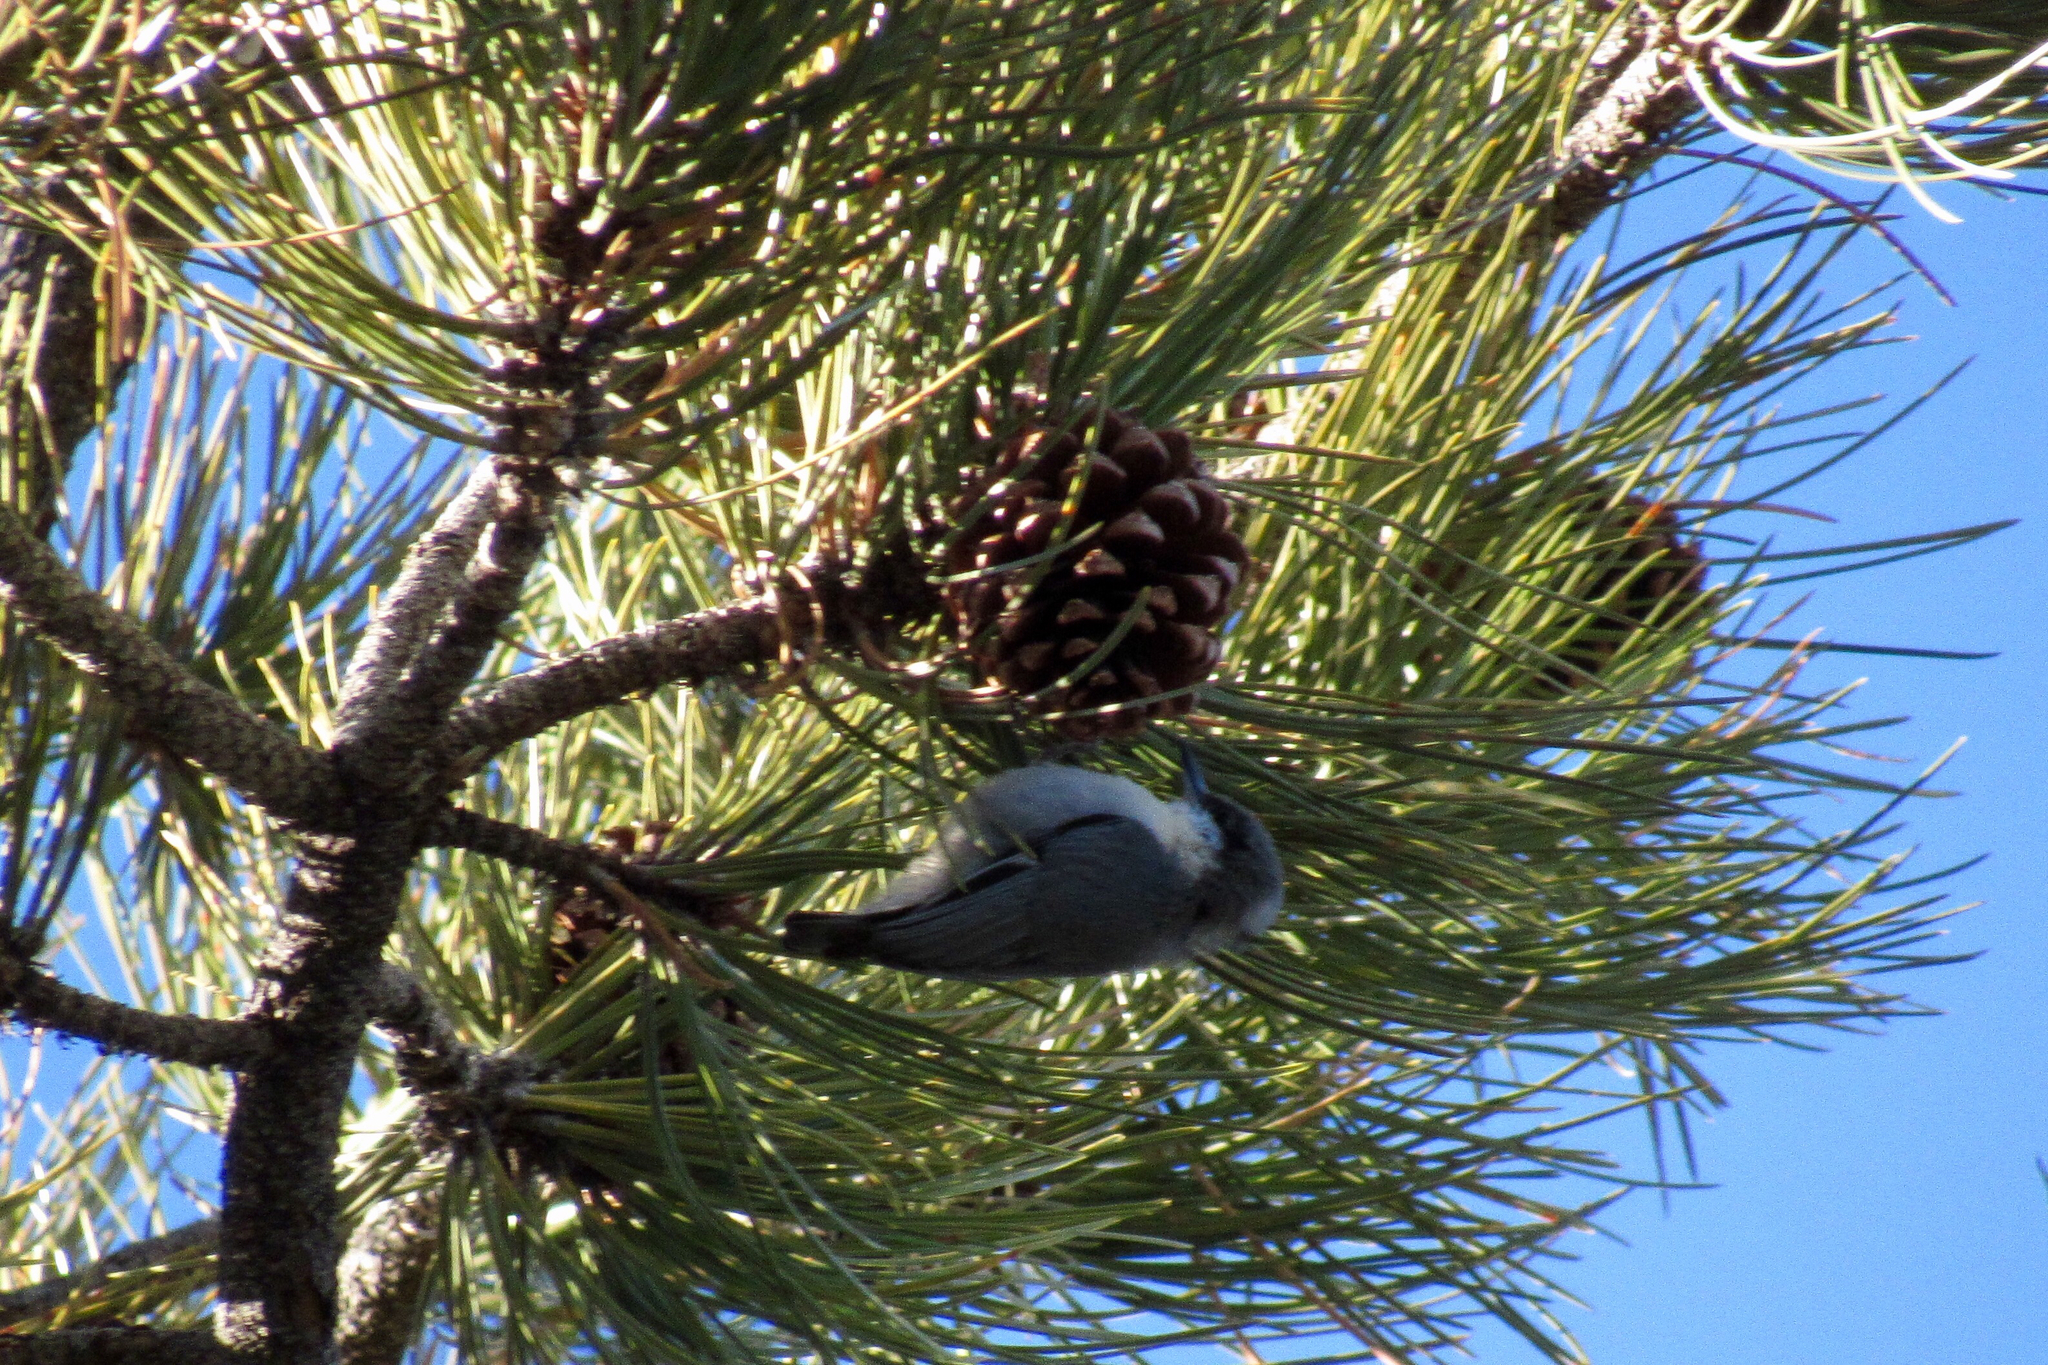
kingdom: Animalia
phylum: Chordata
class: Aves
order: Passeriformes
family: Sittidae
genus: Sitta
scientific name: Sitta pygmaea
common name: Pygmy nuthatch
